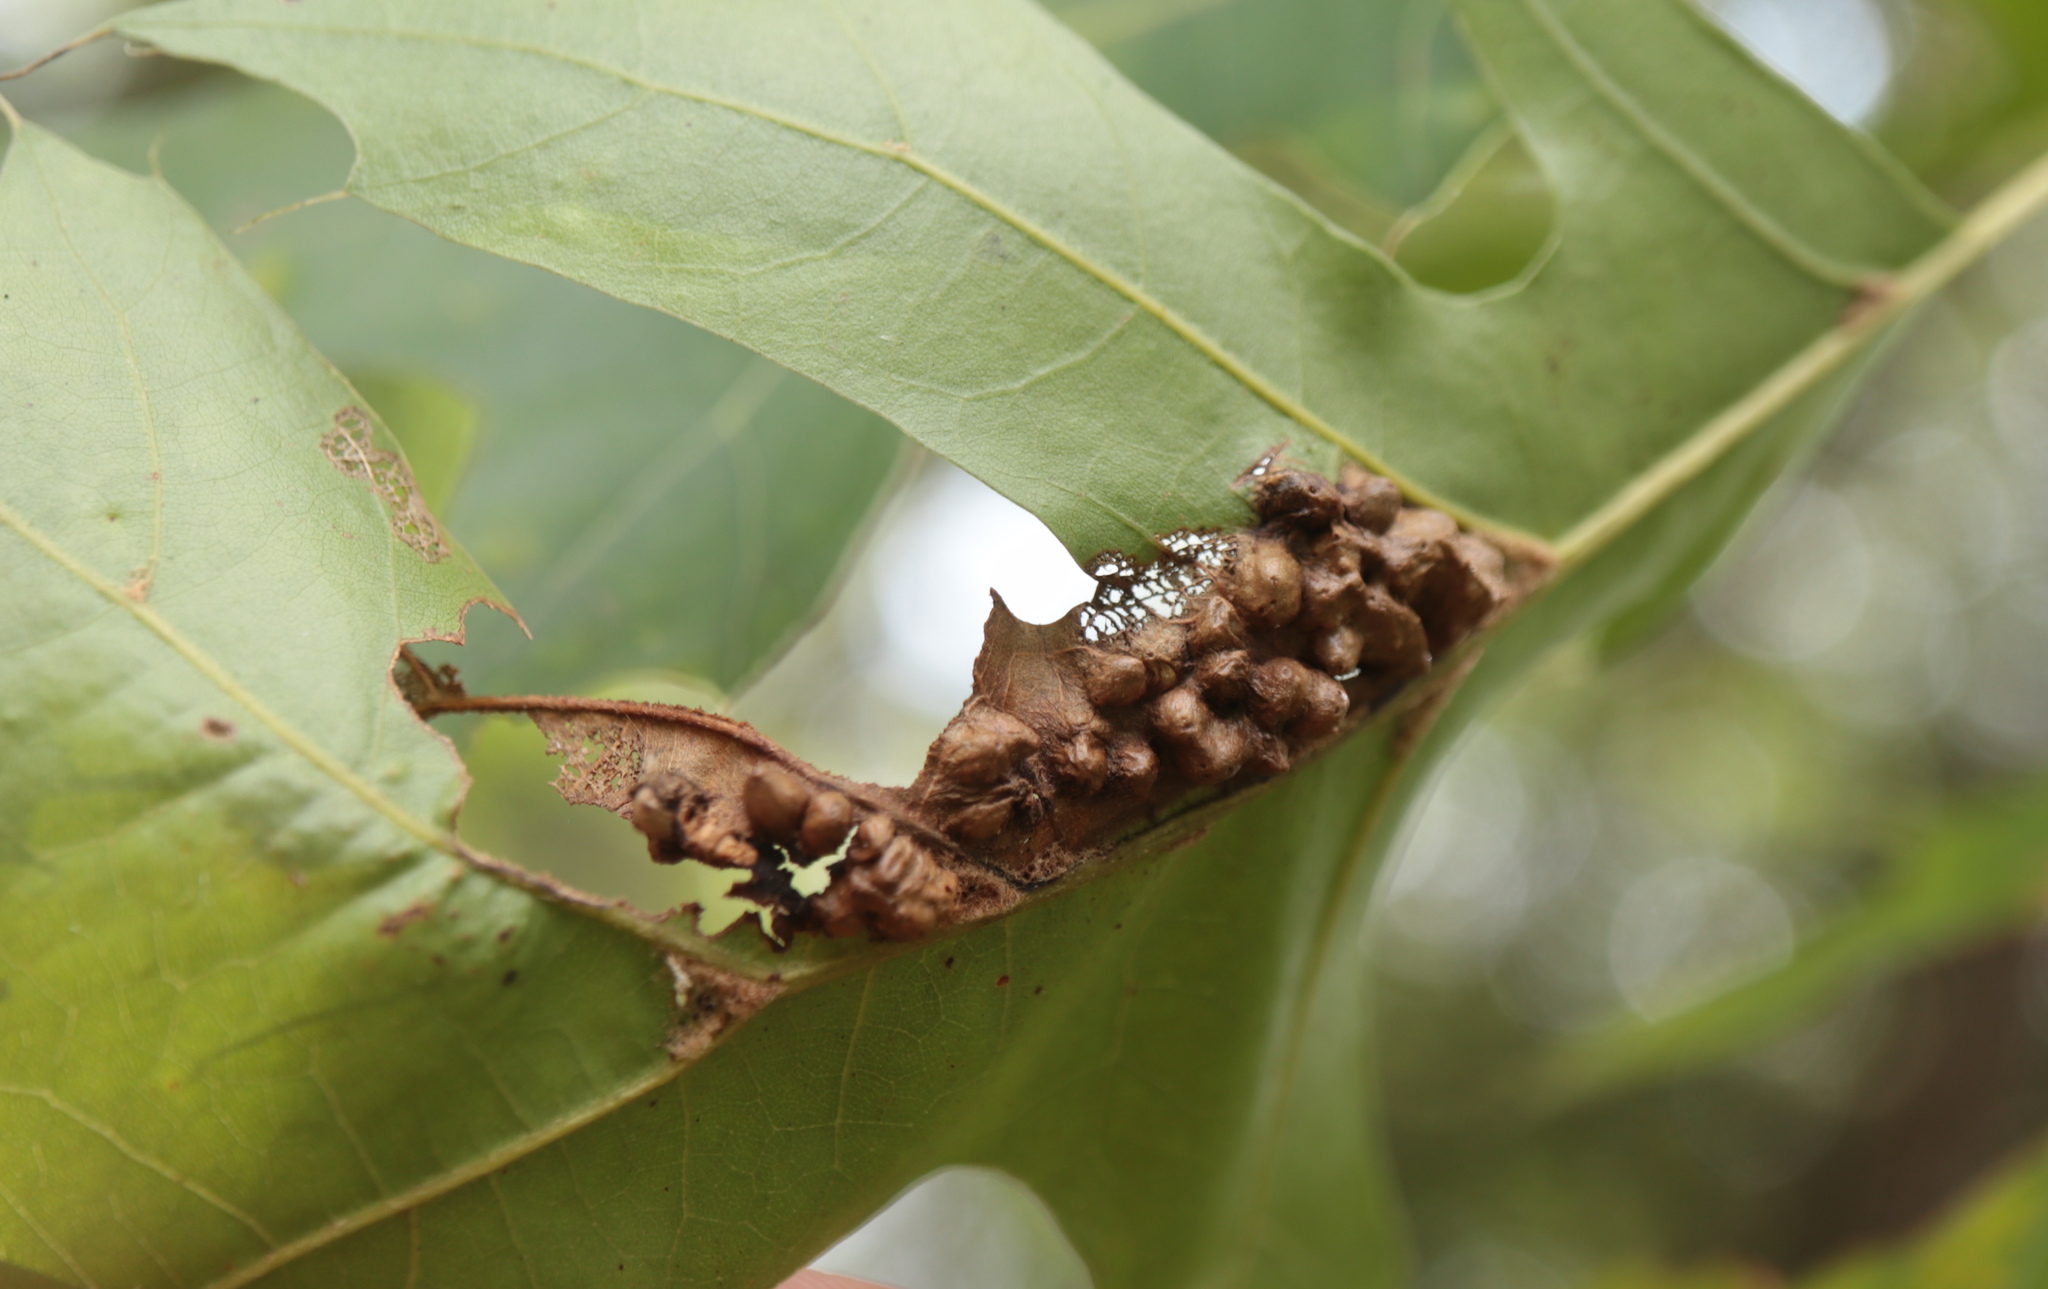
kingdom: Animalia
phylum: Arthropoda
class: Insecta
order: Hymenoptera
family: Cynipidae
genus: Melikaiella
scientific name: Melikaiella ostensackeni
